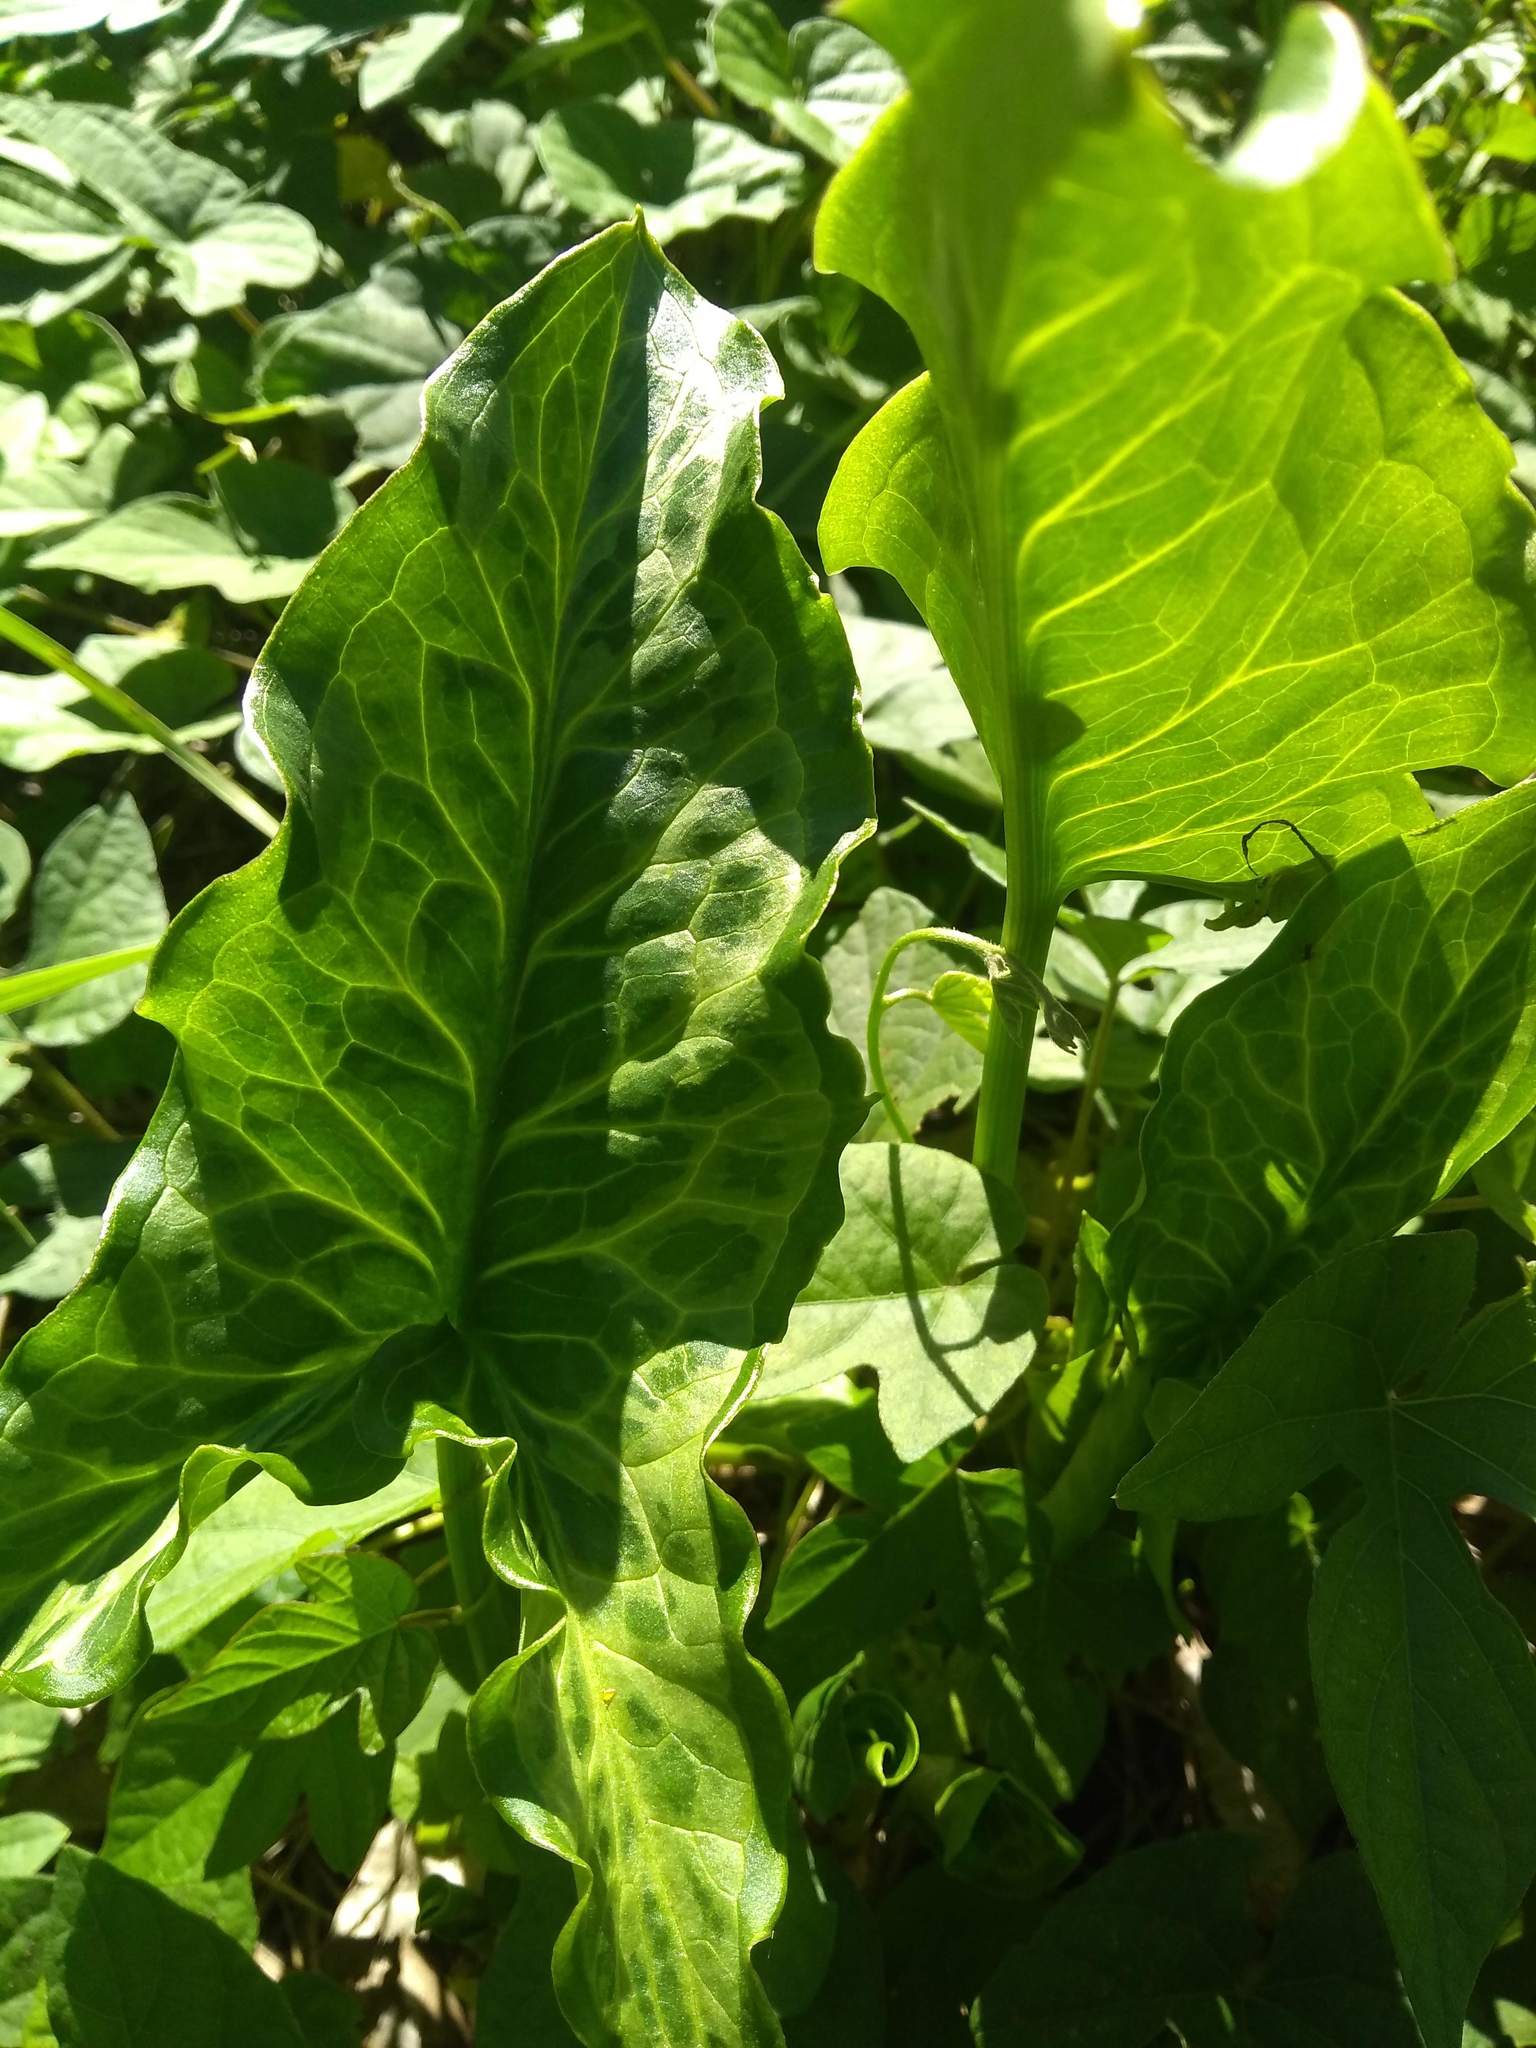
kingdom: Plantae
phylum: Tracheophyta
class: Liliopsida
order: Alismatales
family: Araceae
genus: Arum
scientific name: Arum italicum
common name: Italian lords-and-ladies
